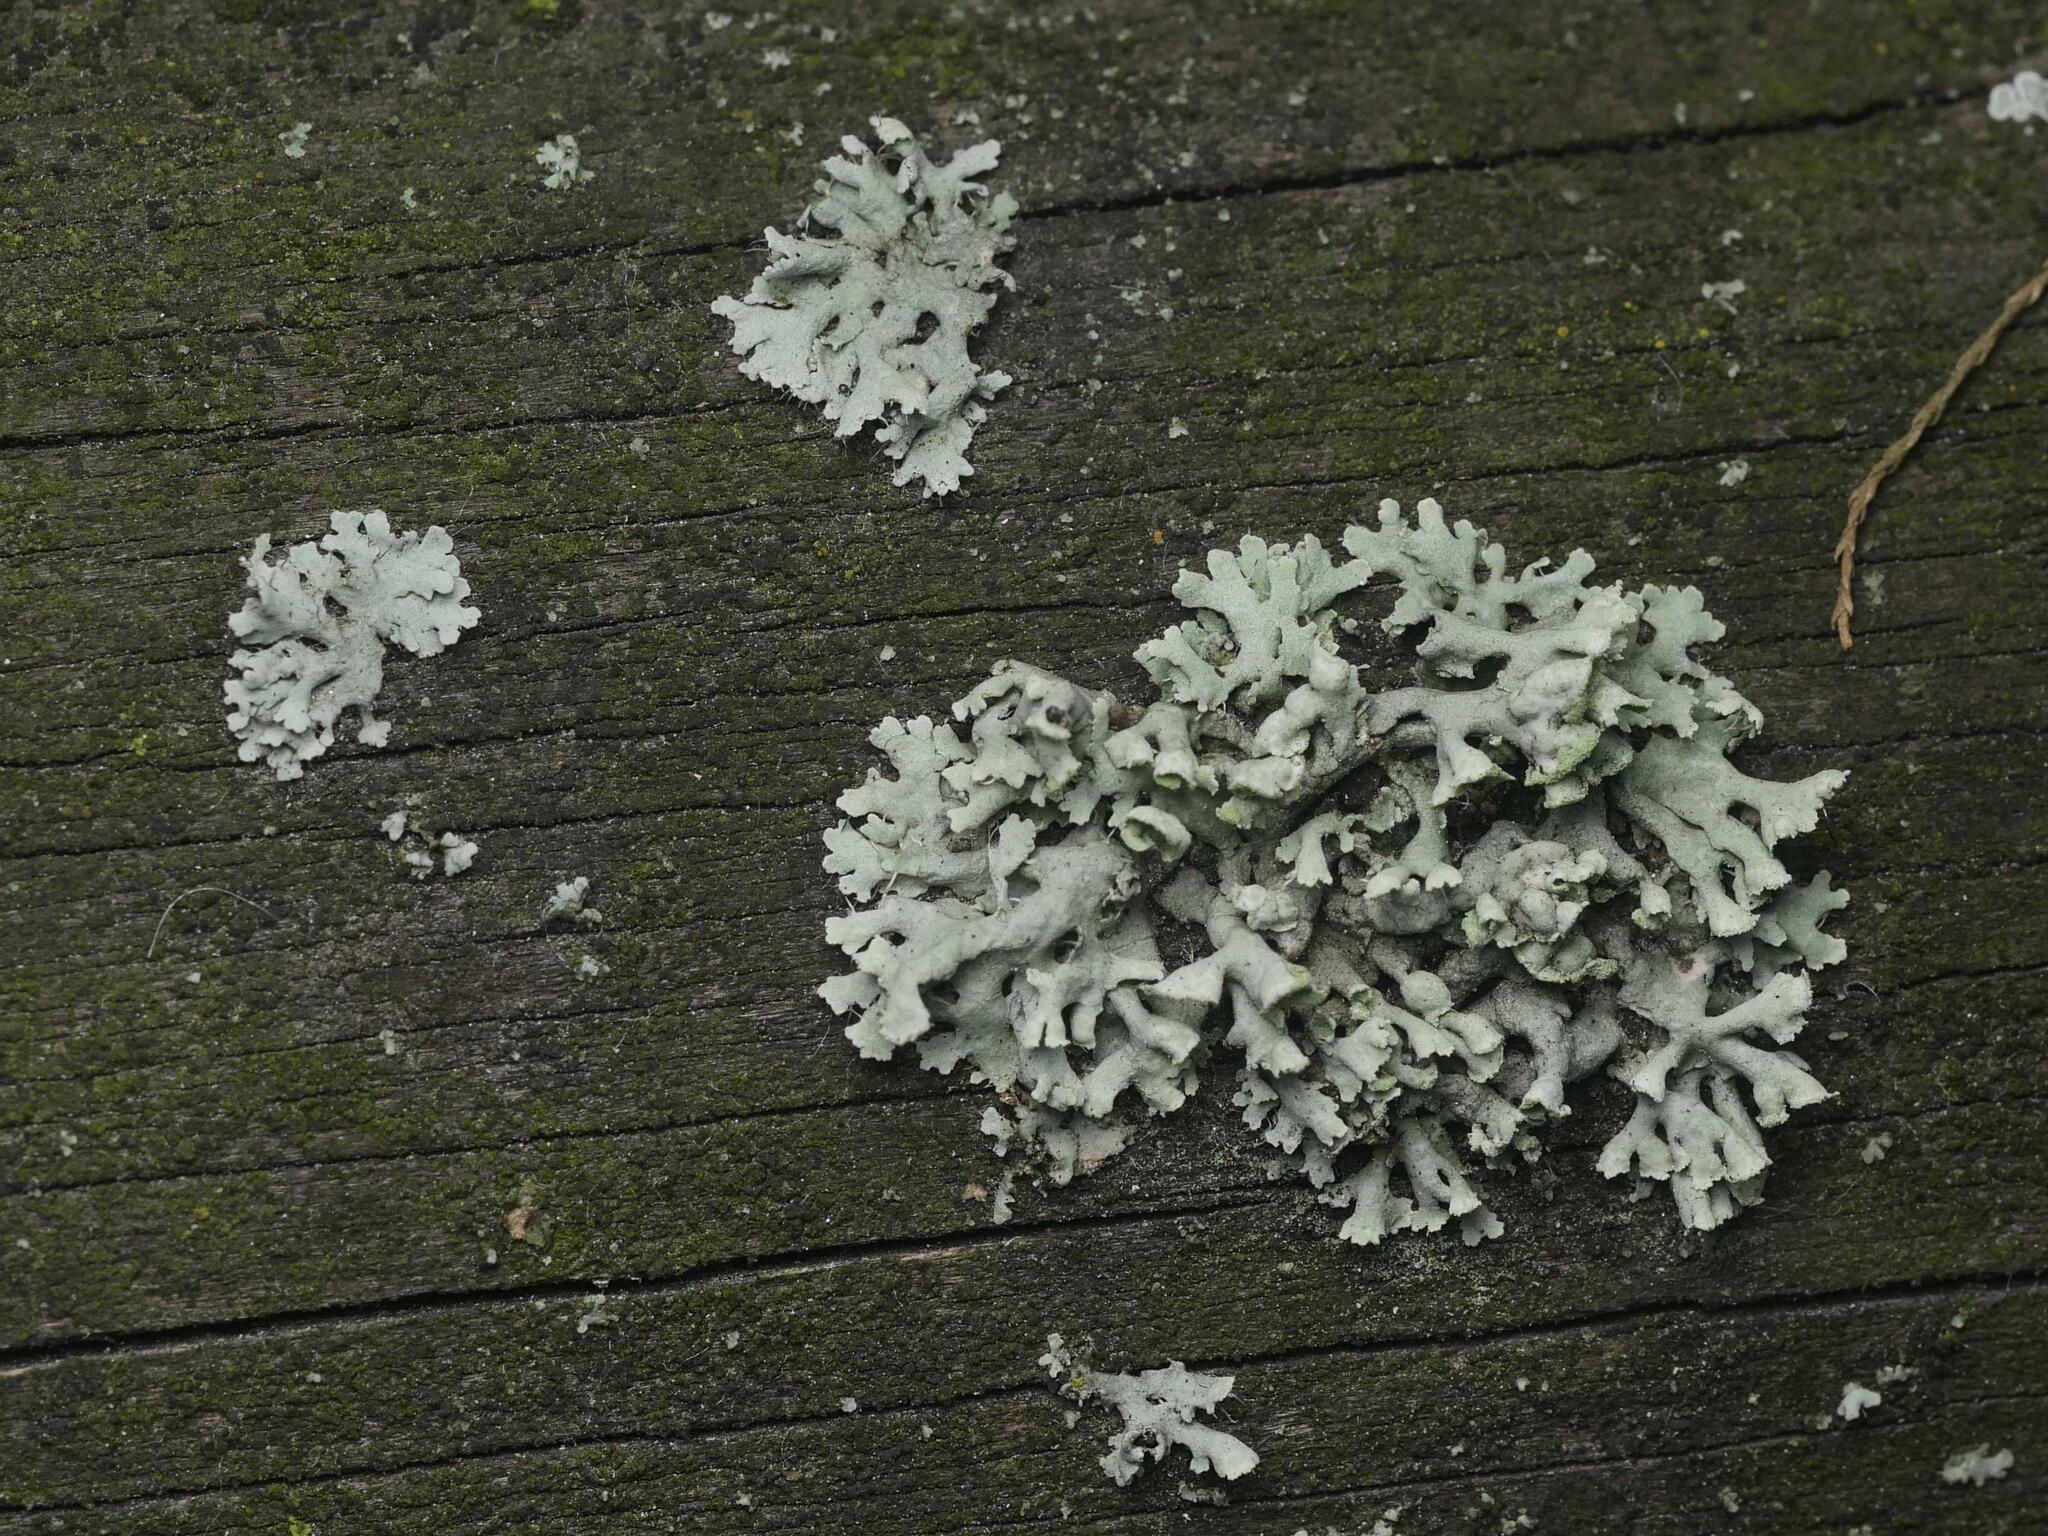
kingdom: Fungi
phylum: Ascomycota
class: Lecanoromycetes
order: Caliciales
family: Physciaceae
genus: Physcia
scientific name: Physcia adscendens
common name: Hooded rosette lichen
